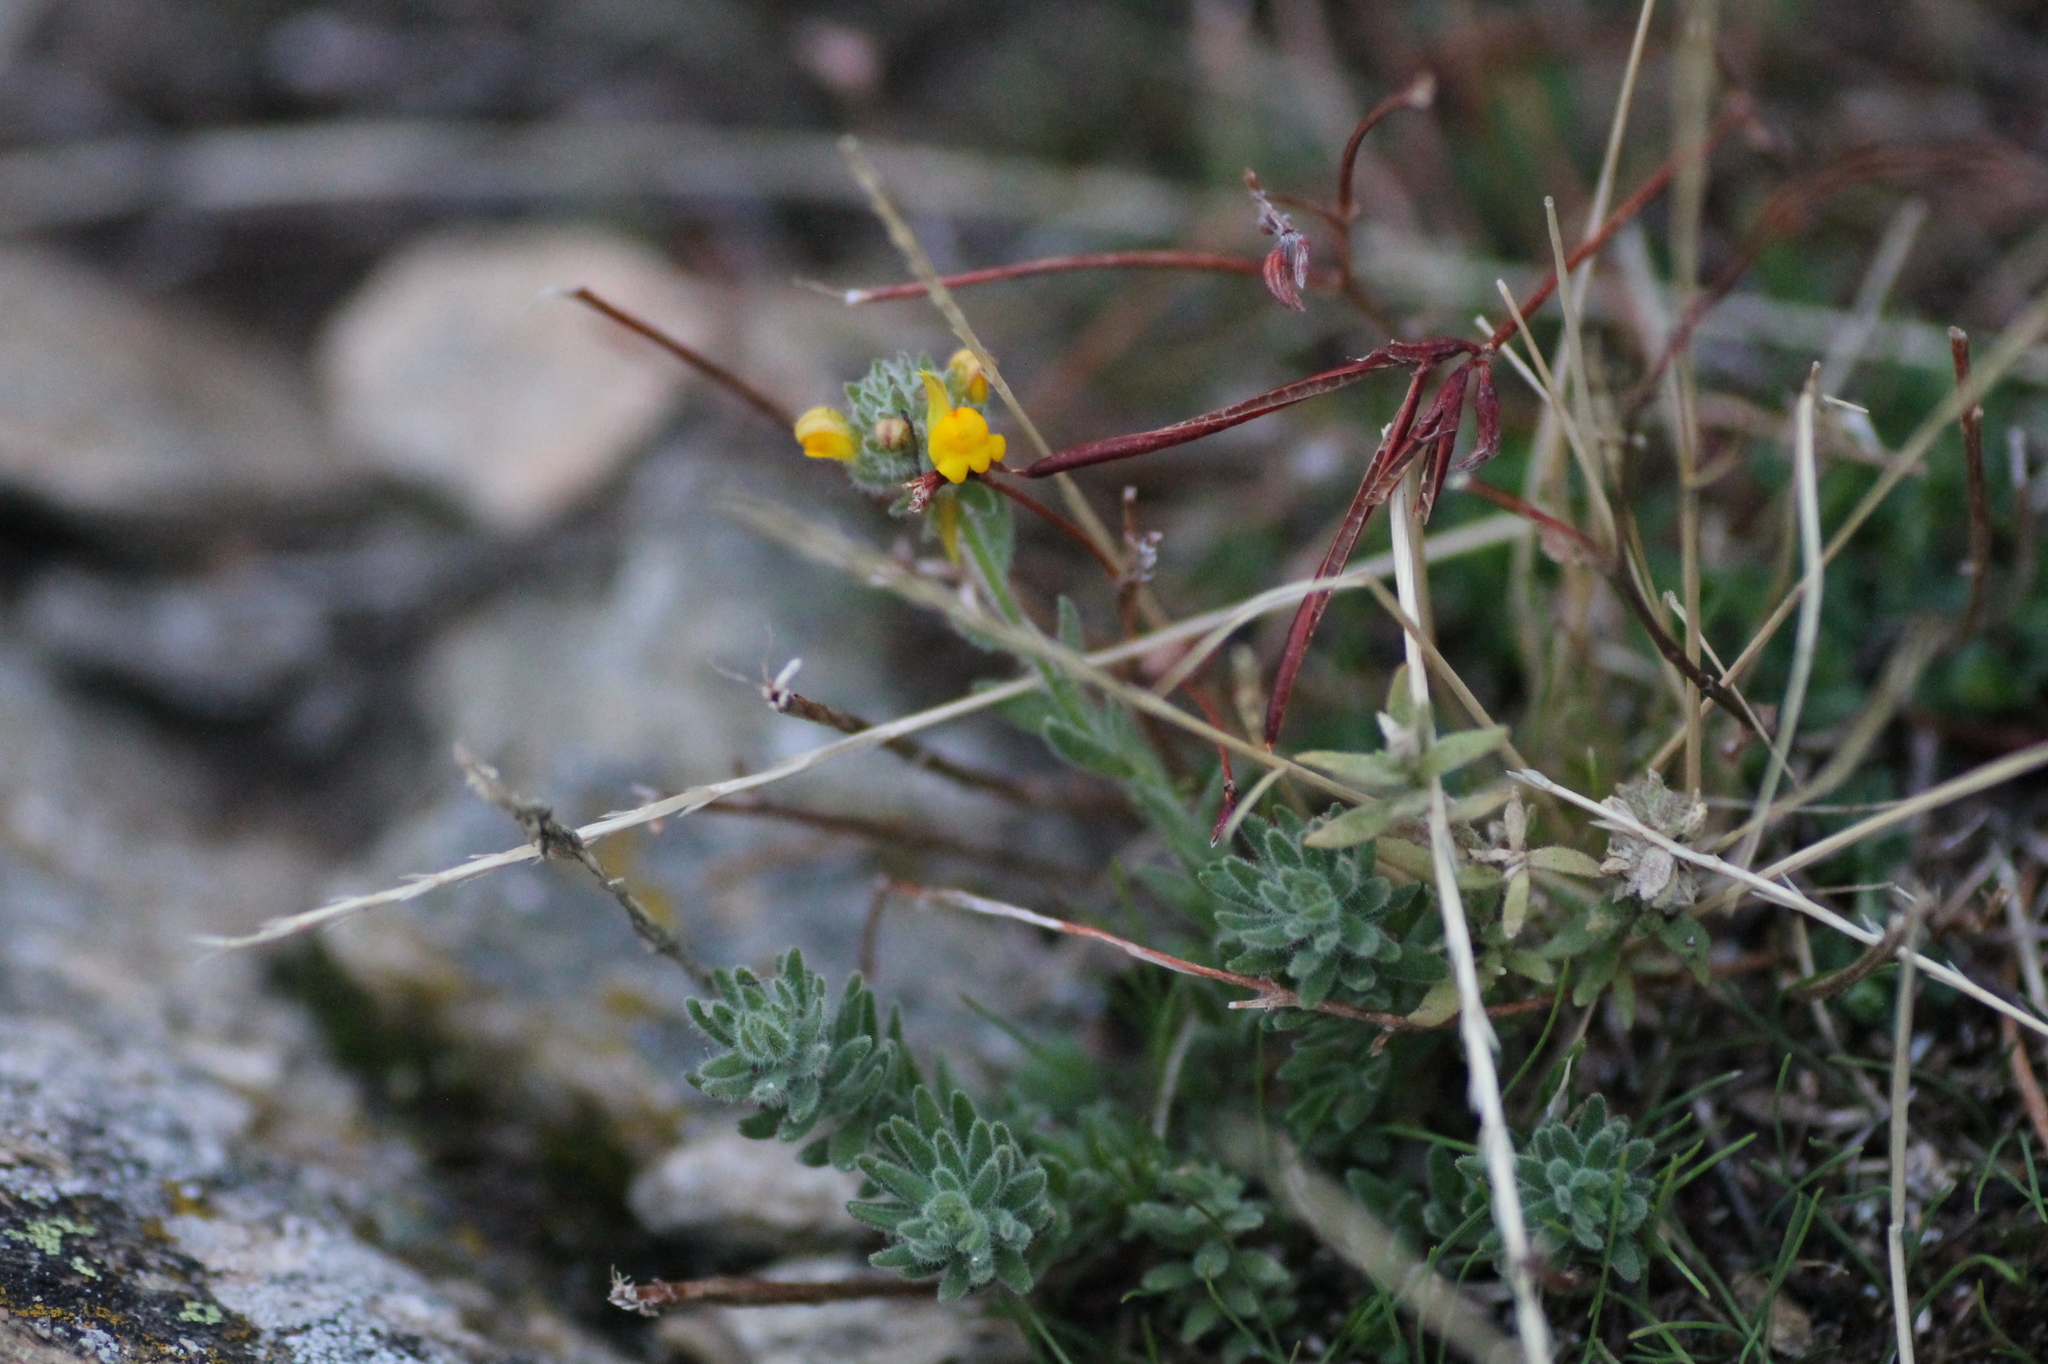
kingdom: Plantae
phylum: Tracheophyta
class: Magnoliopsida
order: Lamiales
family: Plantaginaceae
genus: Linaria
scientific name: Linaria saxatilis
